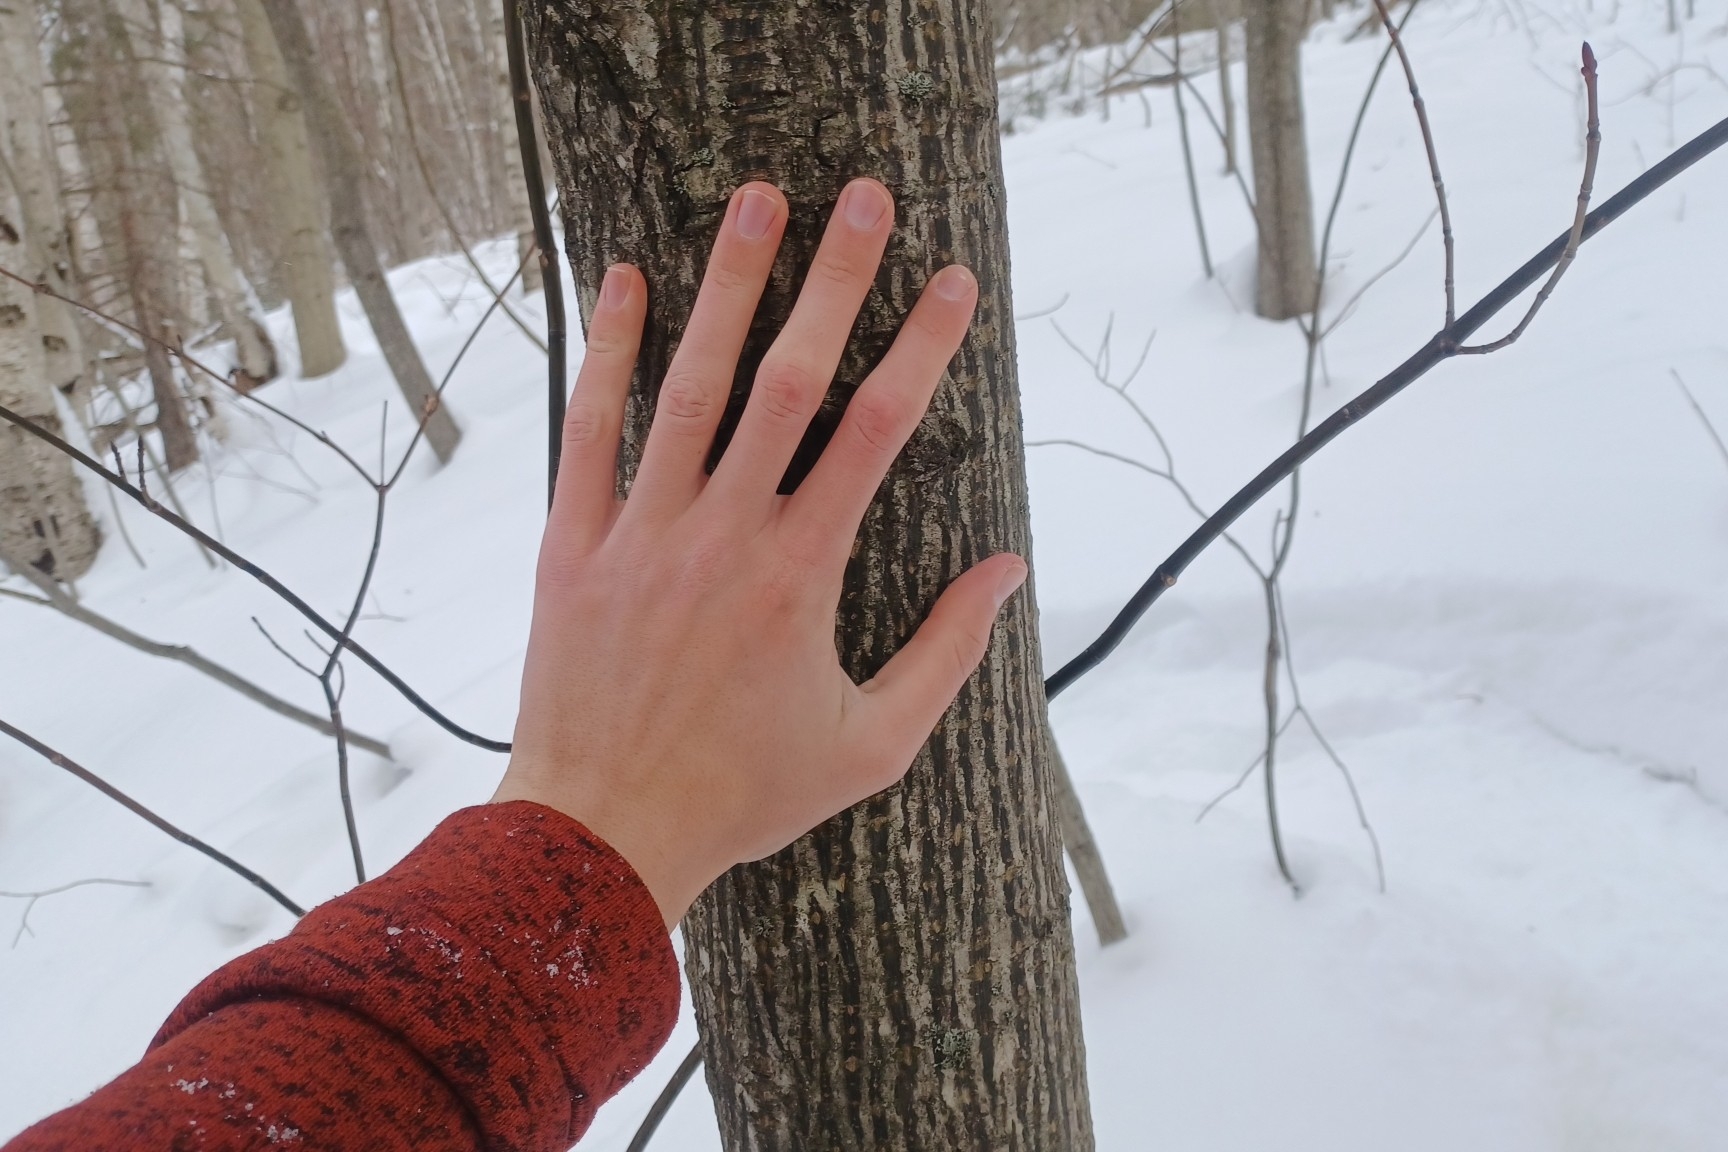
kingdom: Plantae
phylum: Tracheophyta
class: Magnoliopsida
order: Sapindales
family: Sapindaceae
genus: Acer
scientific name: Acer pensylvanicum
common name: Moosewood
